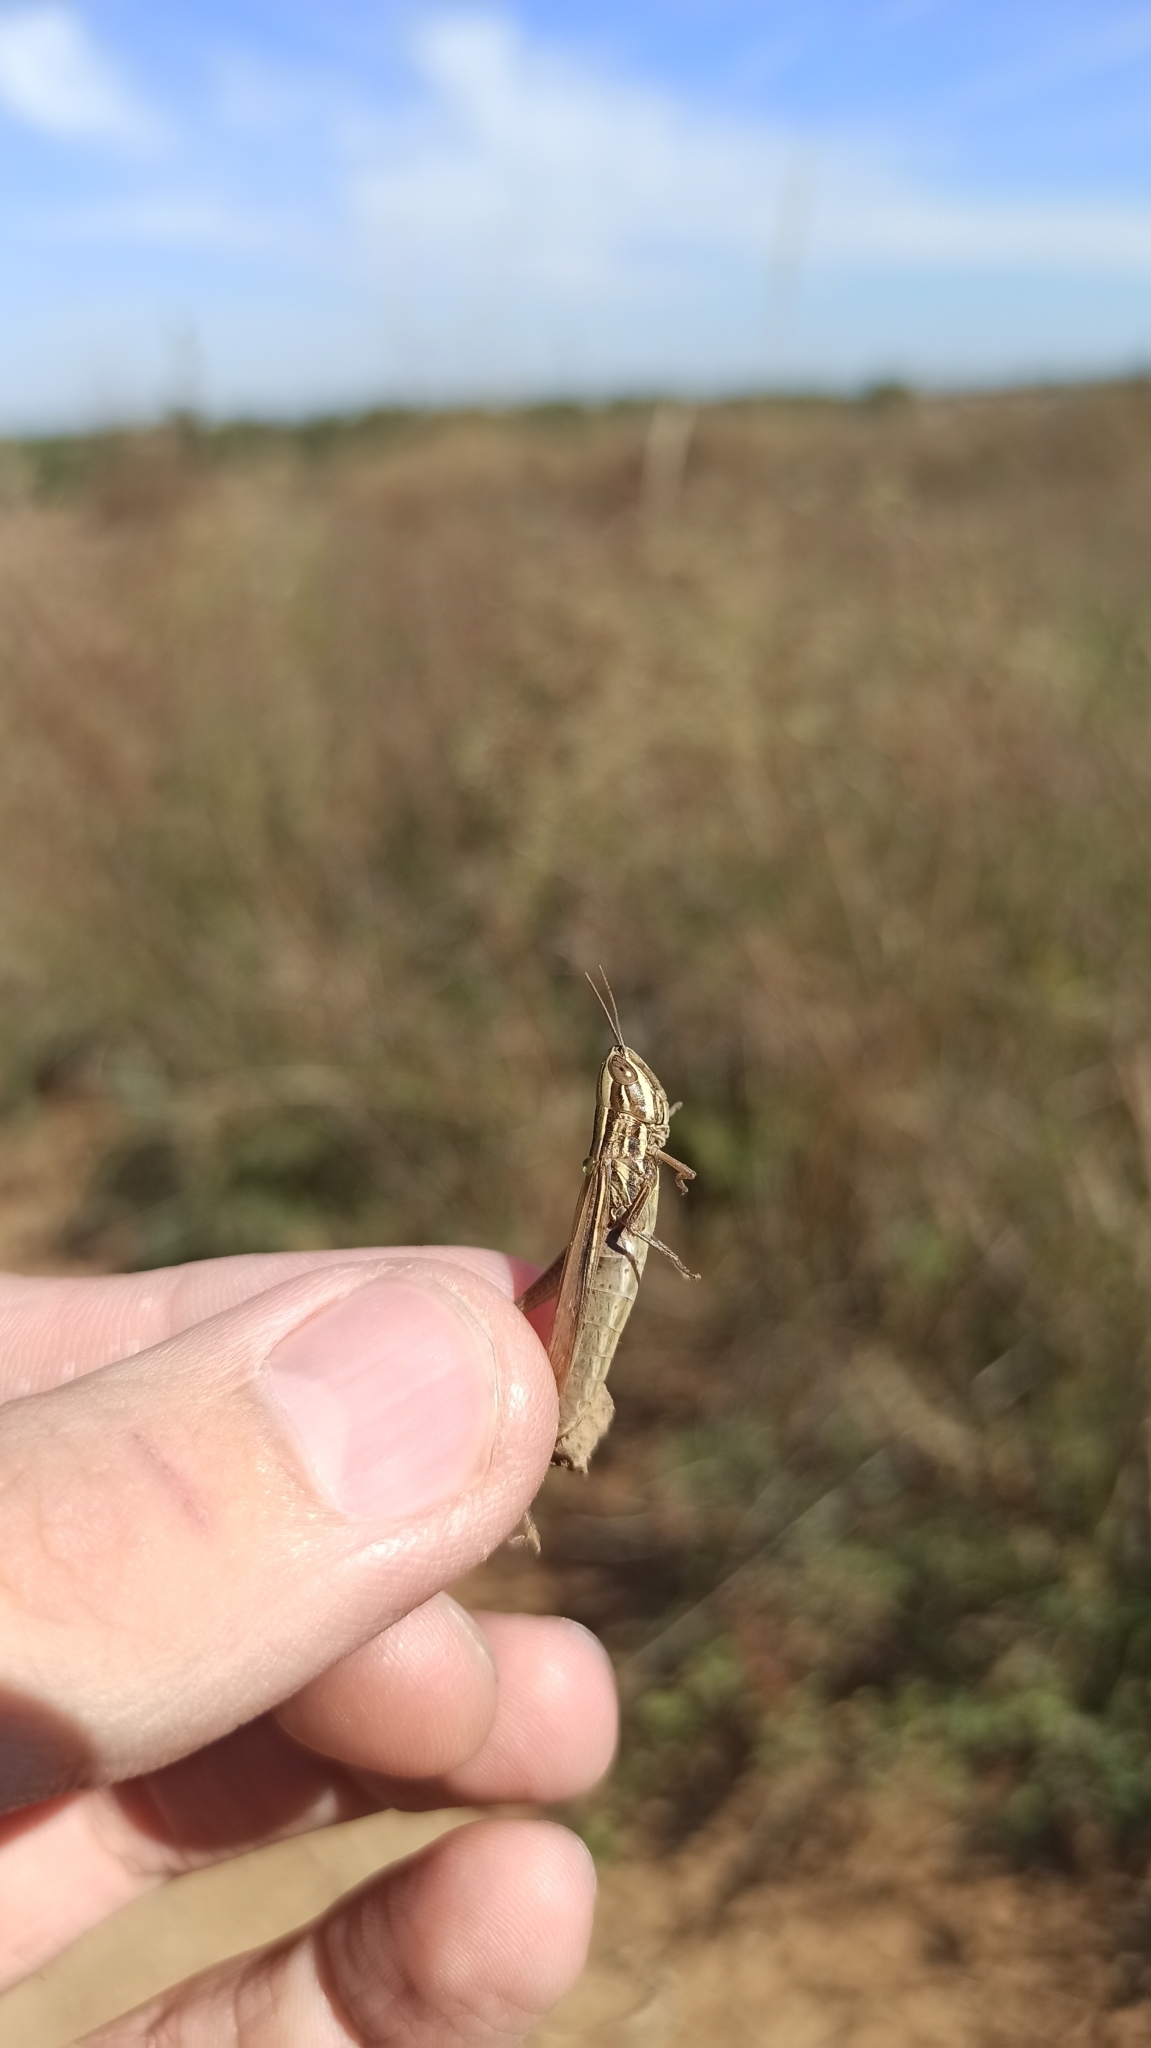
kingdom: Animalia
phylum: Arthropoda
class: Insecta
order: Orthoptera
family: Acrididae
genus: Euchorthippus
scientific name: Euchorthippus pulvinatus
